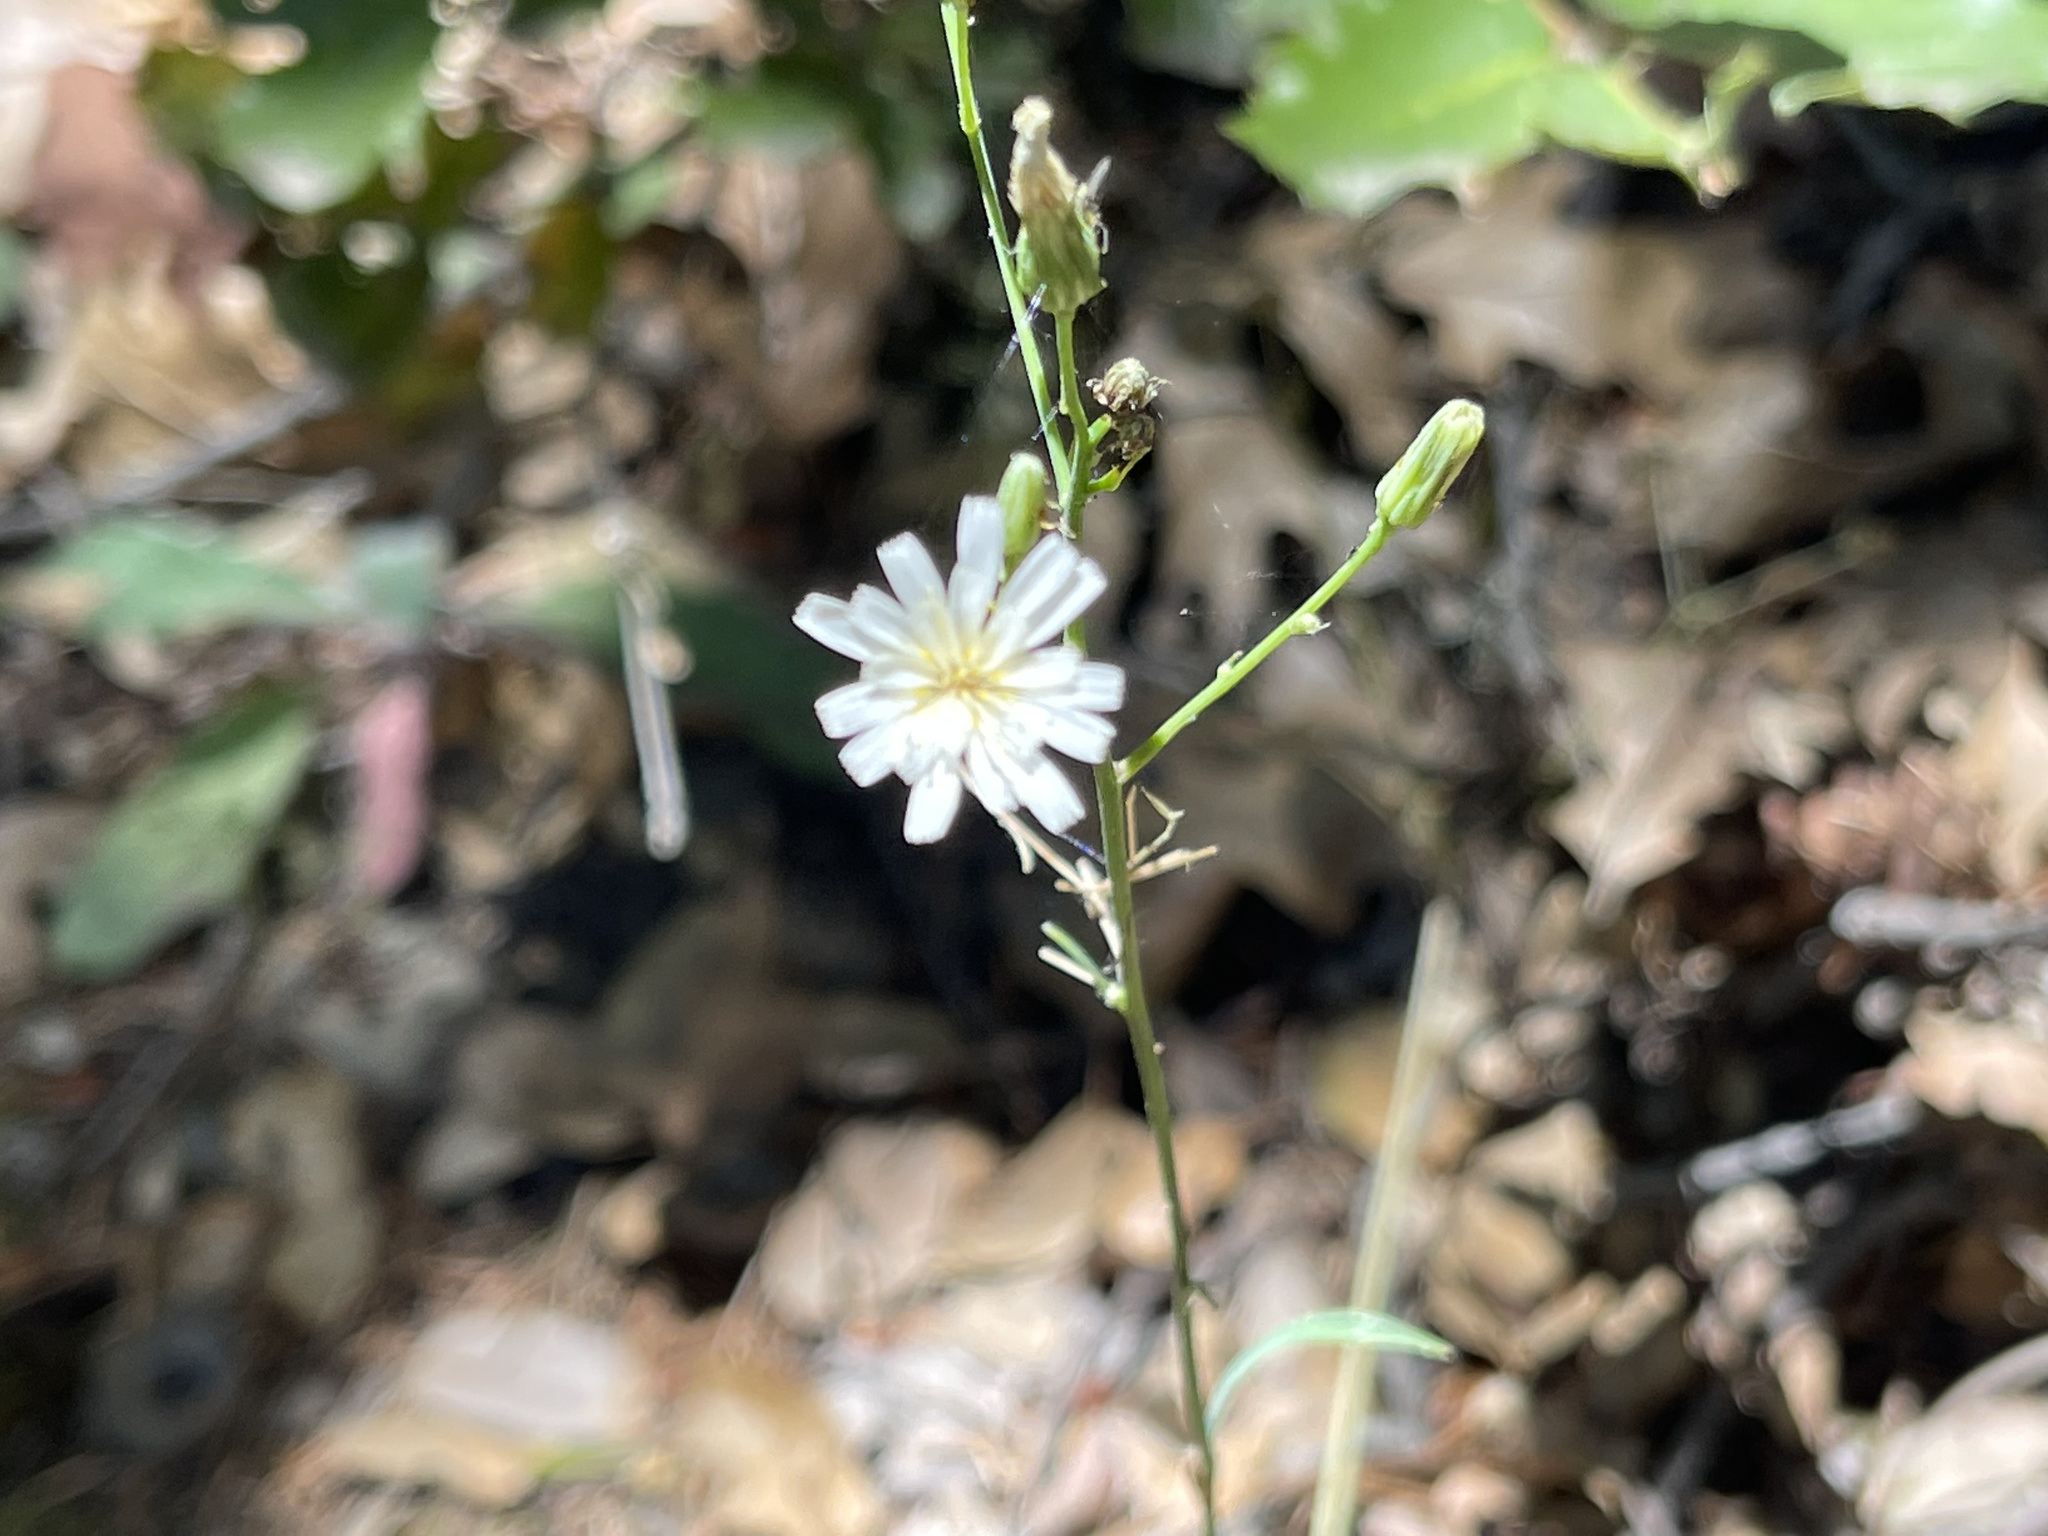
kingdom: Plantae
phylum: Tracheophyta
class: Magnoliopsida
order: Asterales
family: Asteraceae
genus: Hieracium
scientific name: Hieracium albiflorum
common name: White hawkweed
